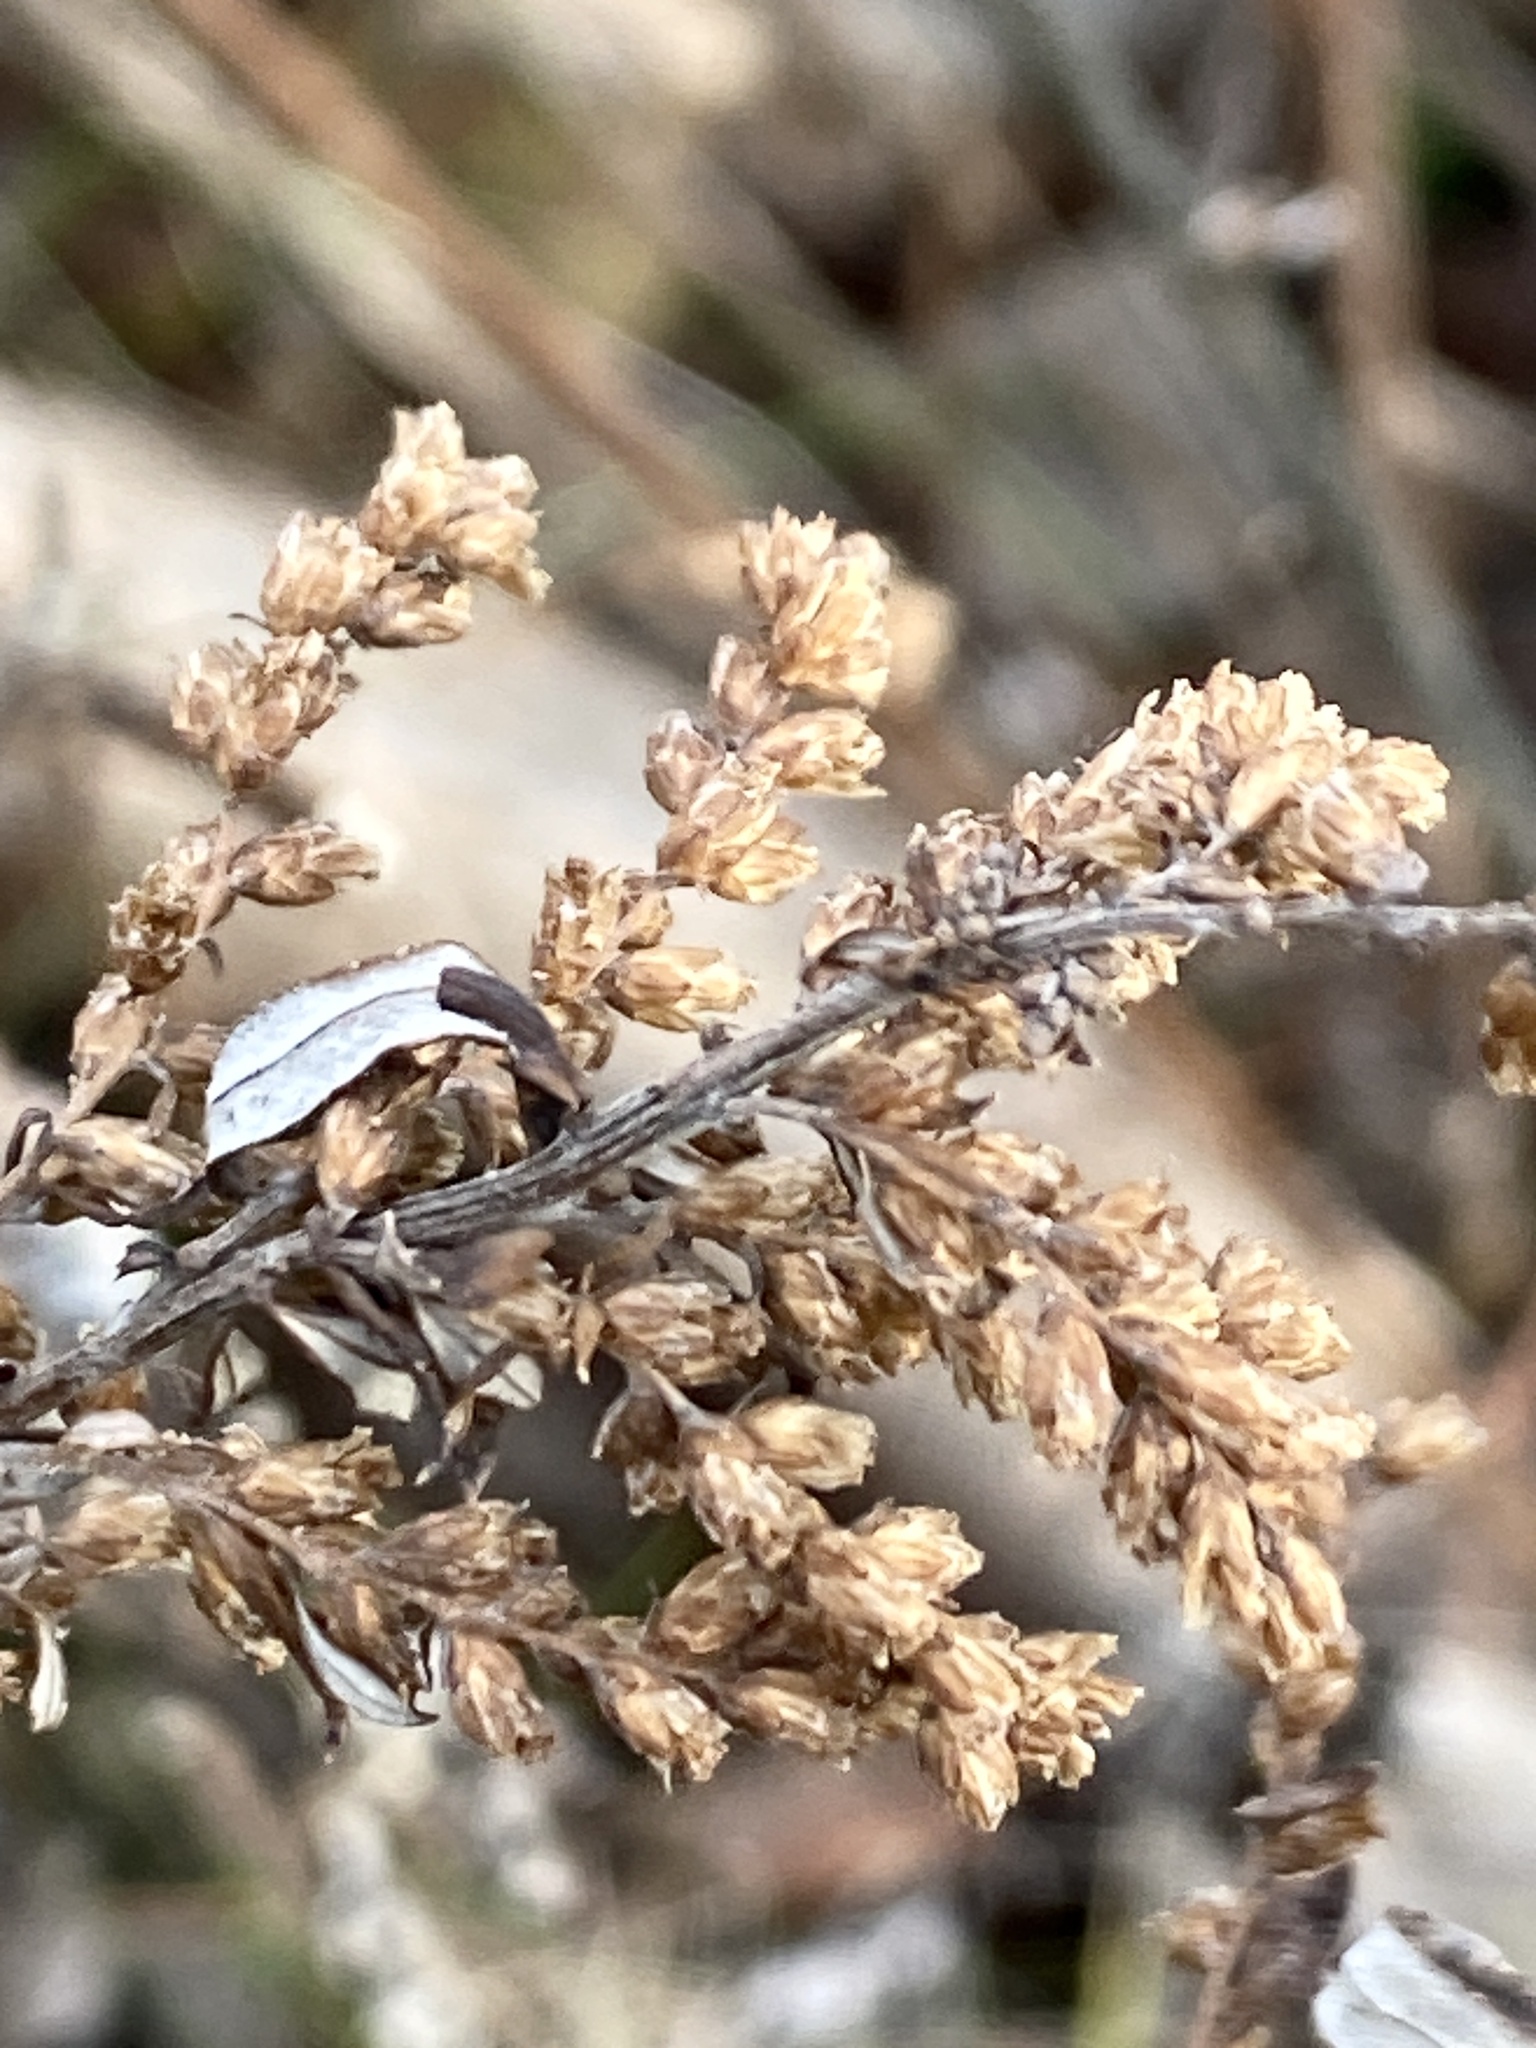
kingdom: Plantae
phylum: Tracheophyta
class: Magnoliopsida
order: Asterales
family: Asteraceae
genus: Artemisia
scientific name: Artemisia vulgaris
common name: Mugwort
